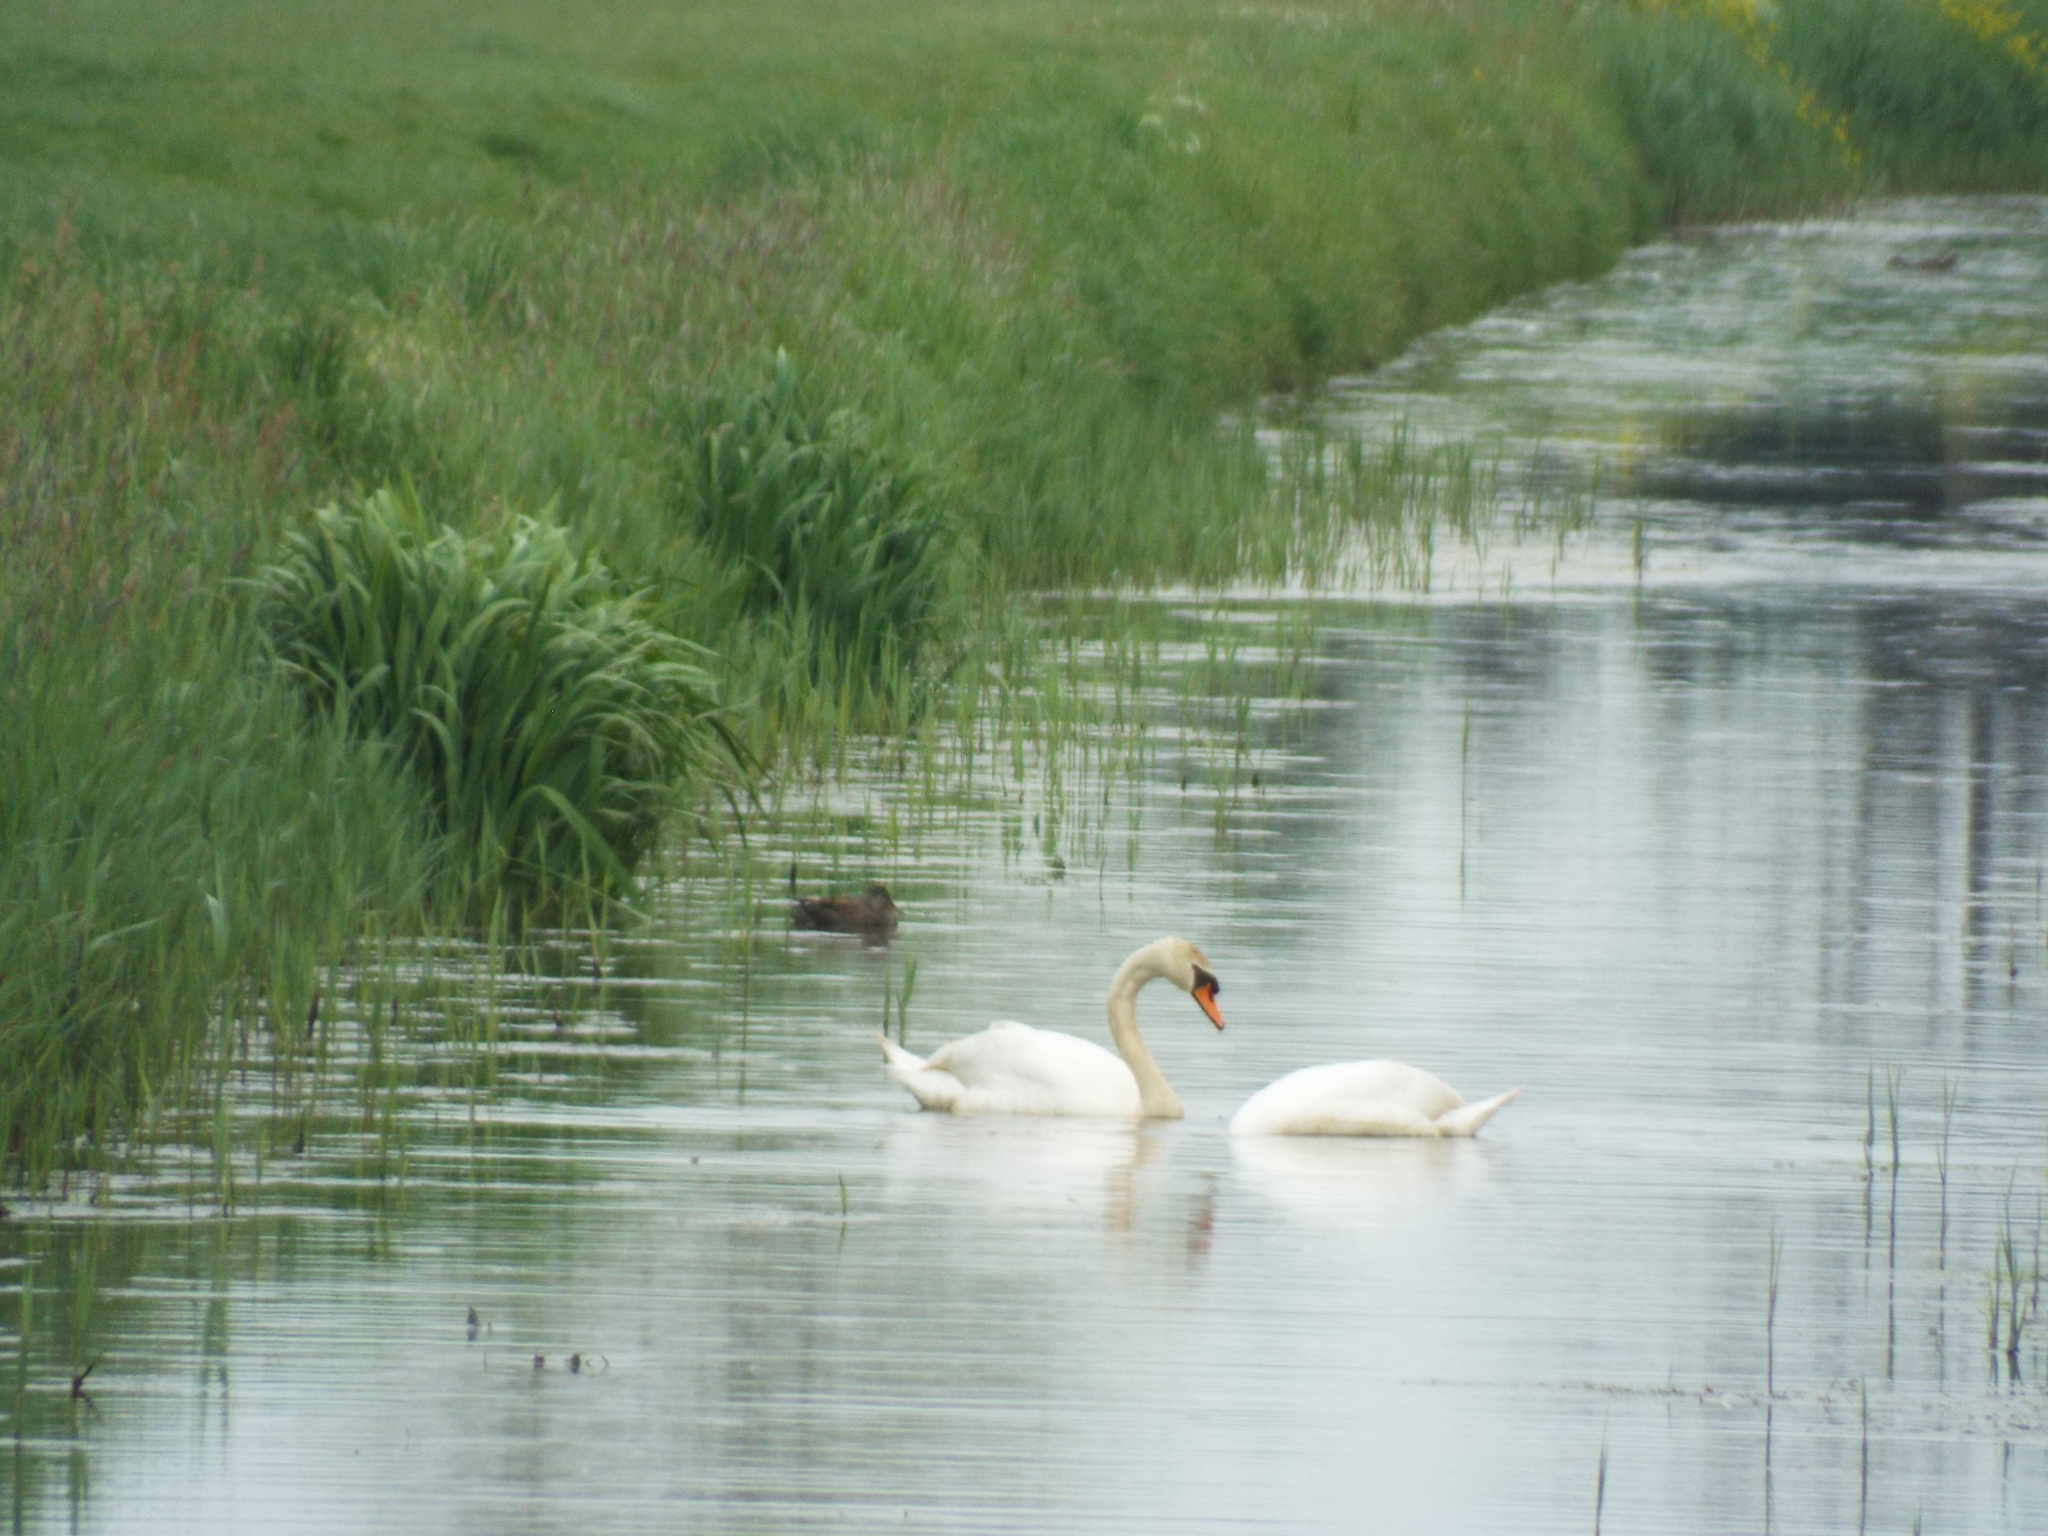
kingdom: Animalia
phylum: Chordata
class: Aves
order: Anseriformes
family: Anatidae
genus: Cygnus
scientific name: Cygnus olor
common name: Mute swan
